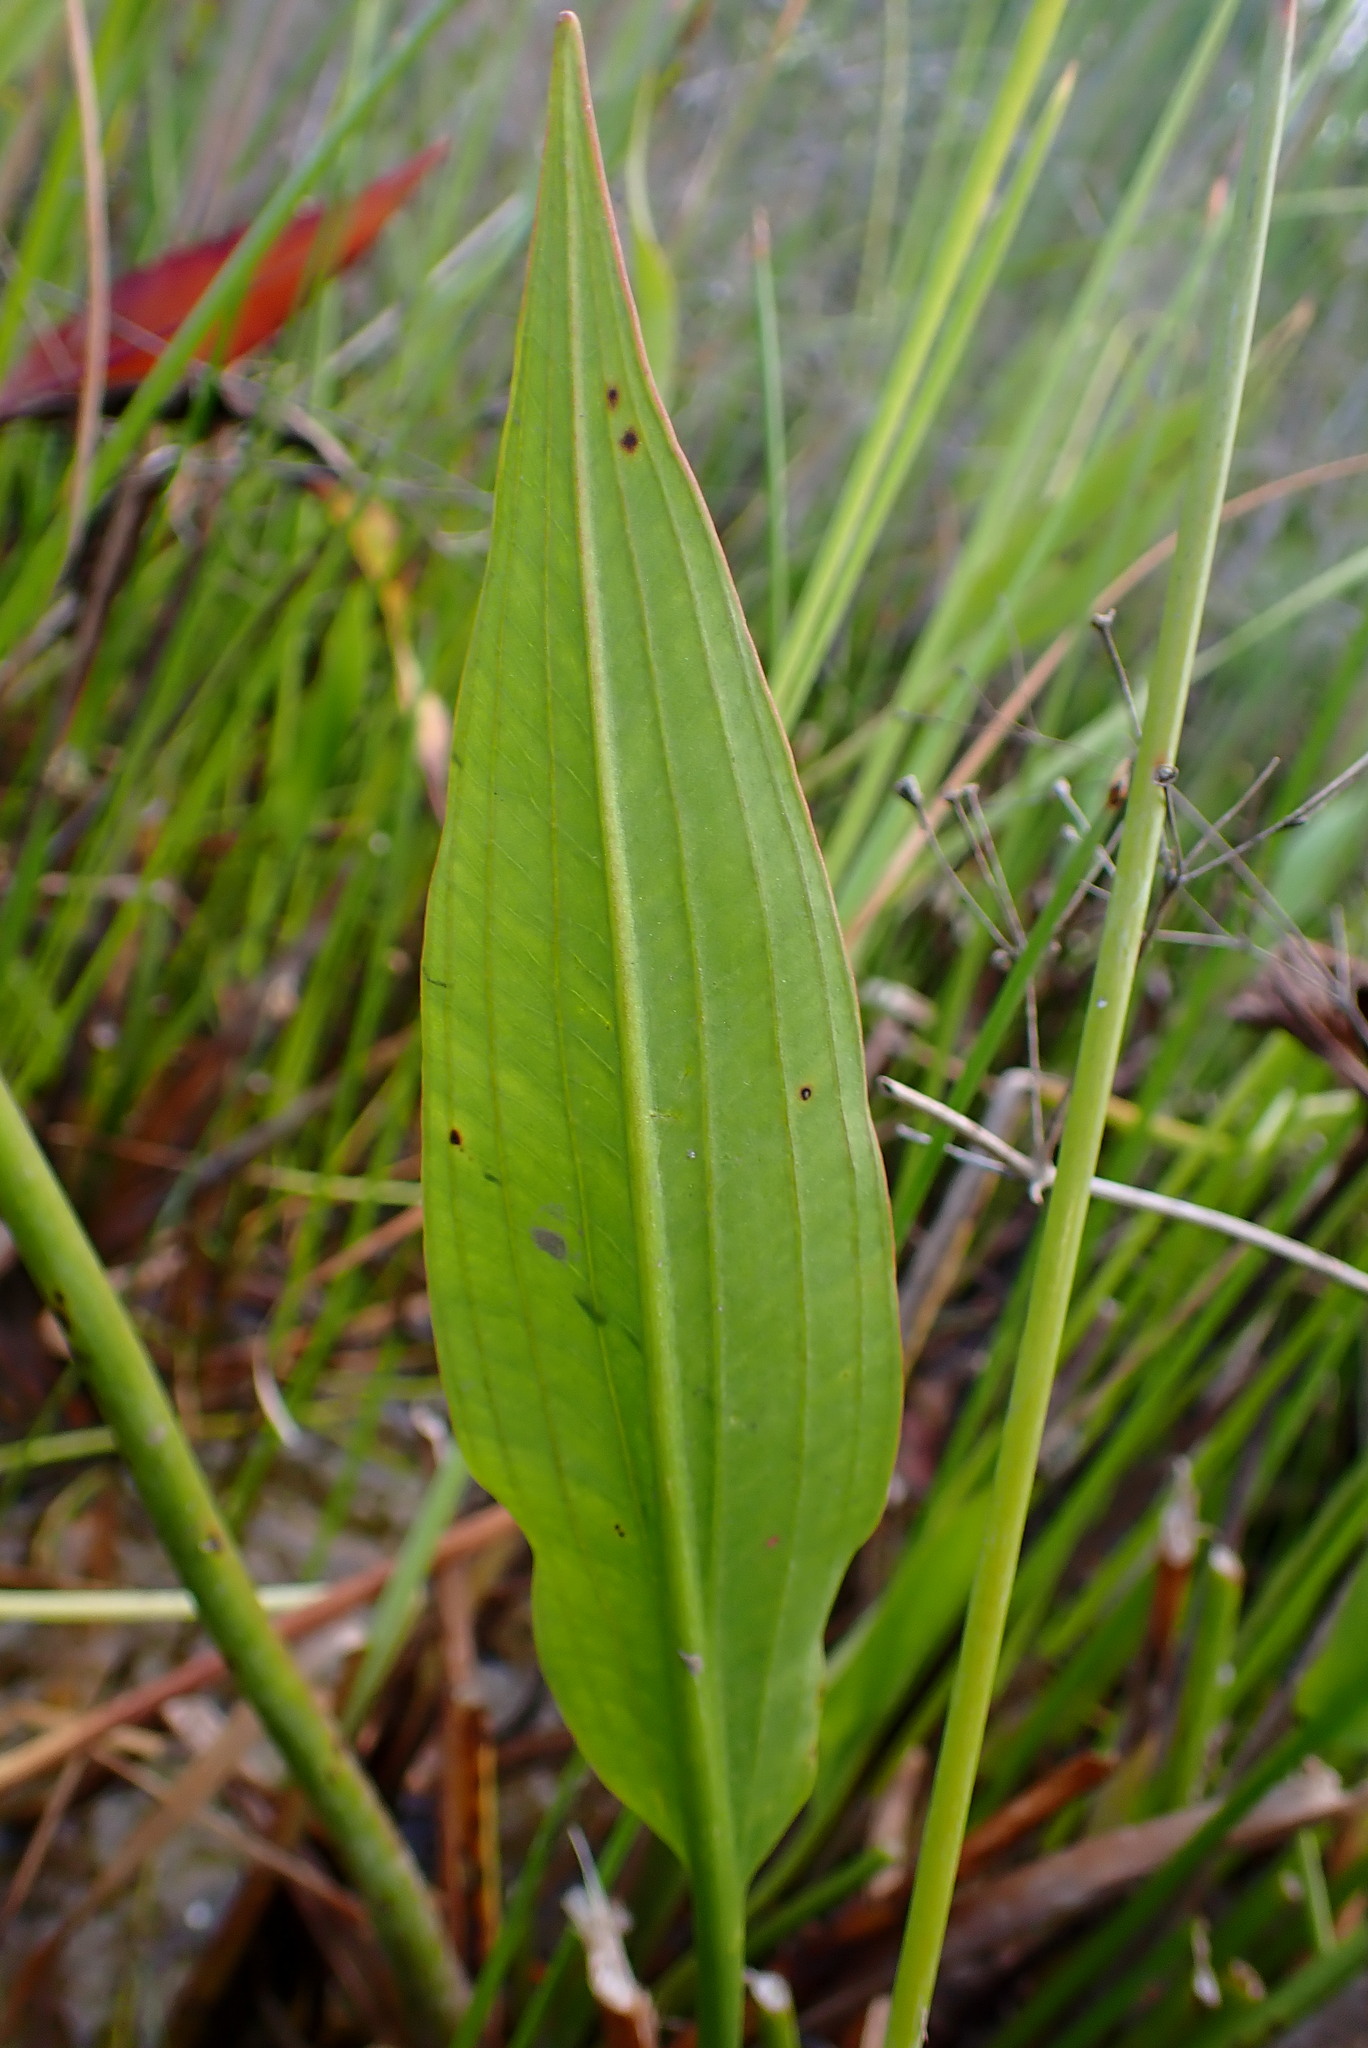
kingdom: Plantae
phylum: Tracheophyta
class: Liliopsida
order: Alismatales
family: Alismataceae
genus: Alisma
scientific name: Alisma lanceolatum
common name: Narrow-leaved water-plantain
